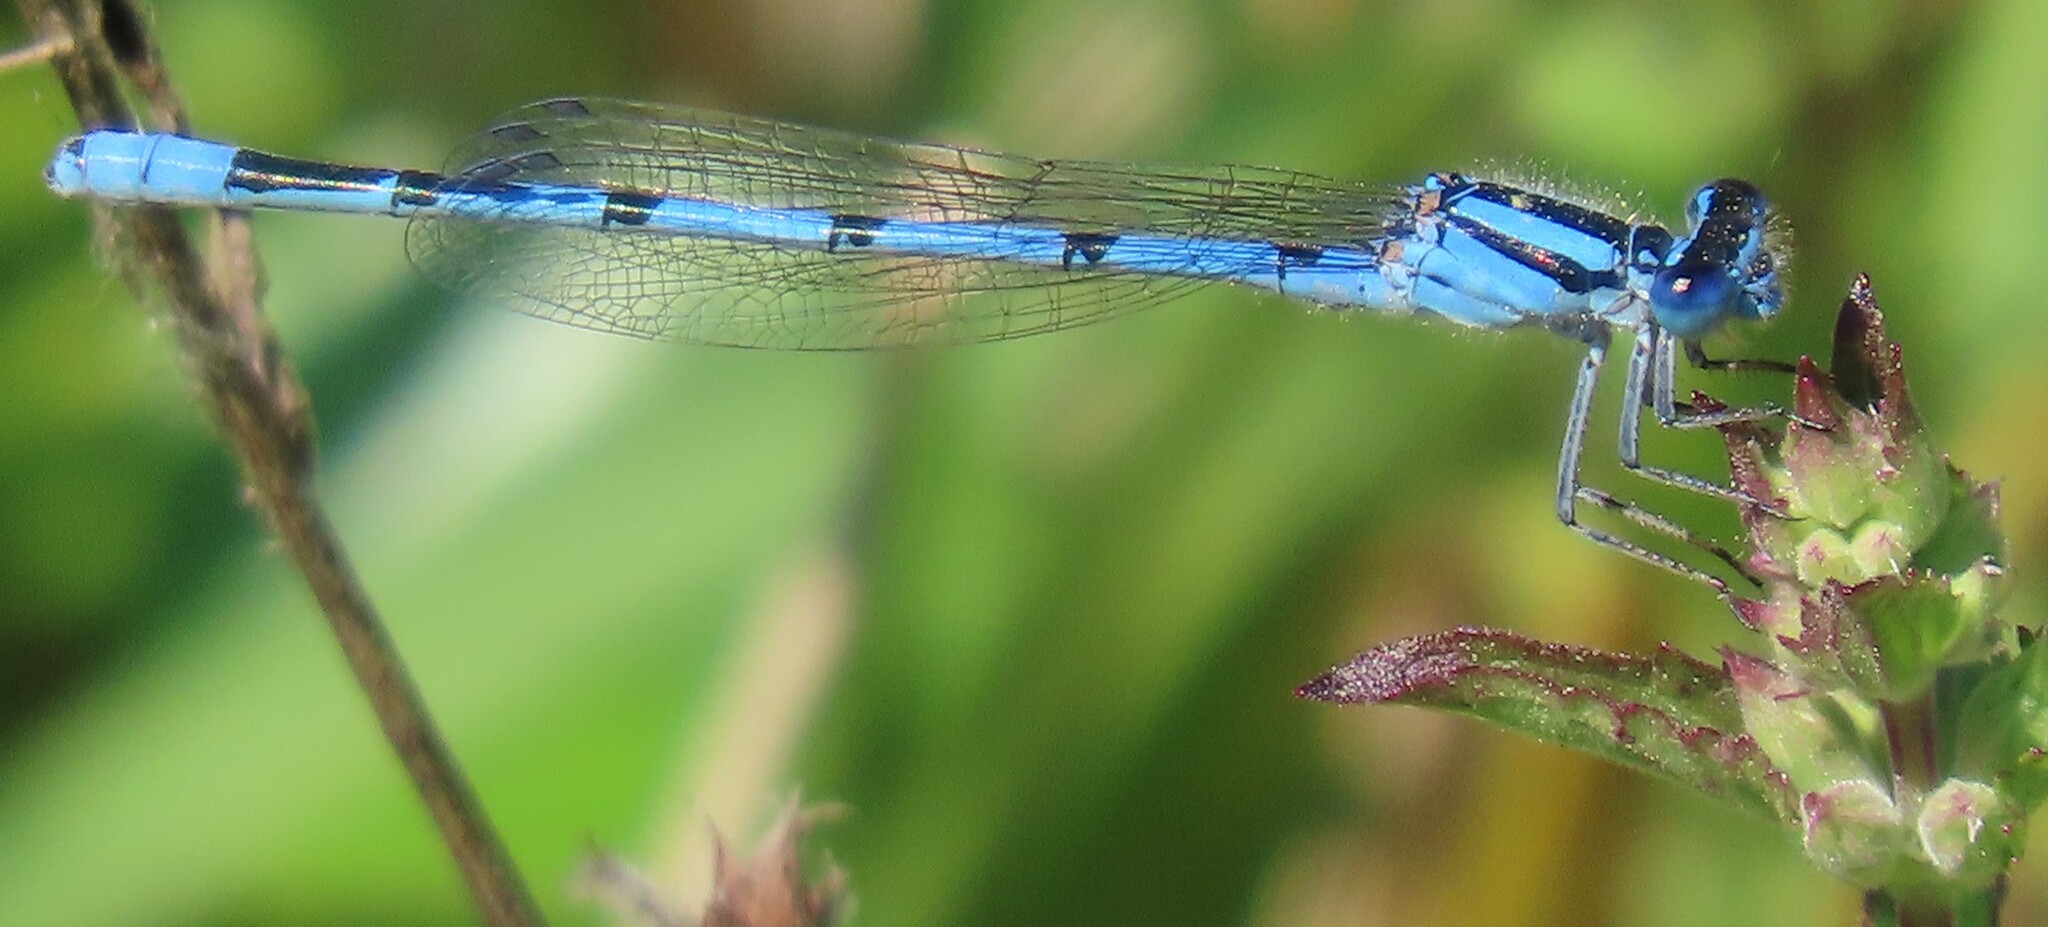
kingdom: Animalia
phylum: Arthropoda
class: Insecta
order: Odonata
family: Coenagrionidae
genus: Enallagma
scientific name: Enallagma doubledayi
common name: Atlantic bluet
